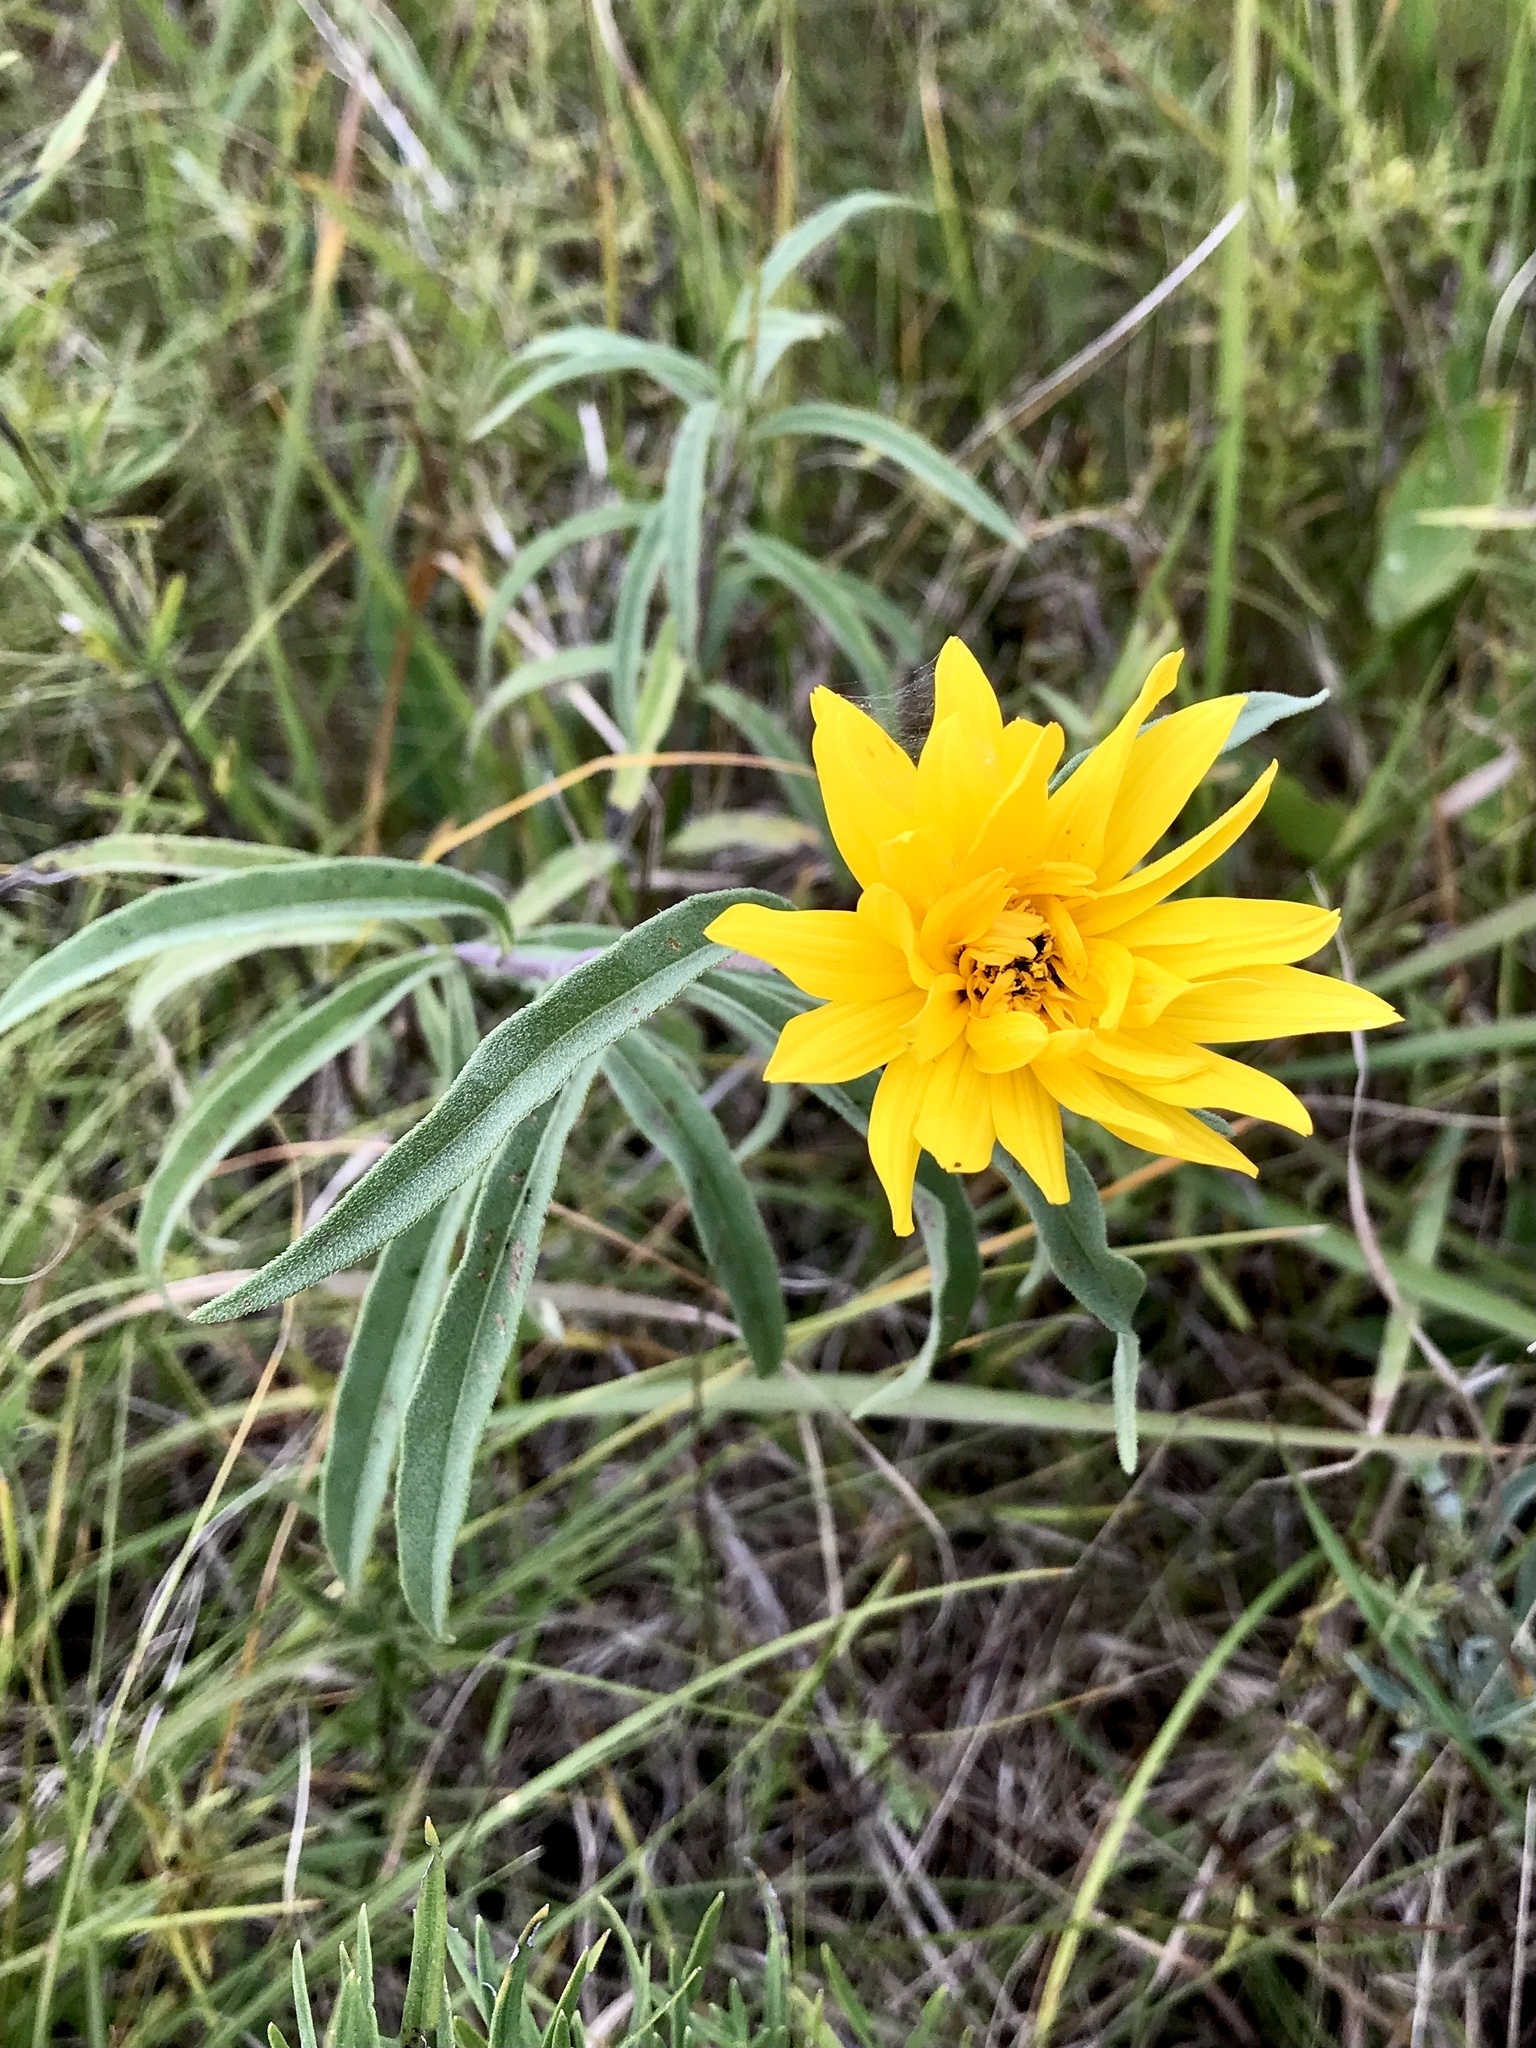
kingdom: Plantae
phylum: Tracheophyta
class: Magnoliopsida
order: Asterales
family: Asteraceae
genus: Helianthus
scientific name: Helianthus maximiliani
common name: Maximilian's sunflower
